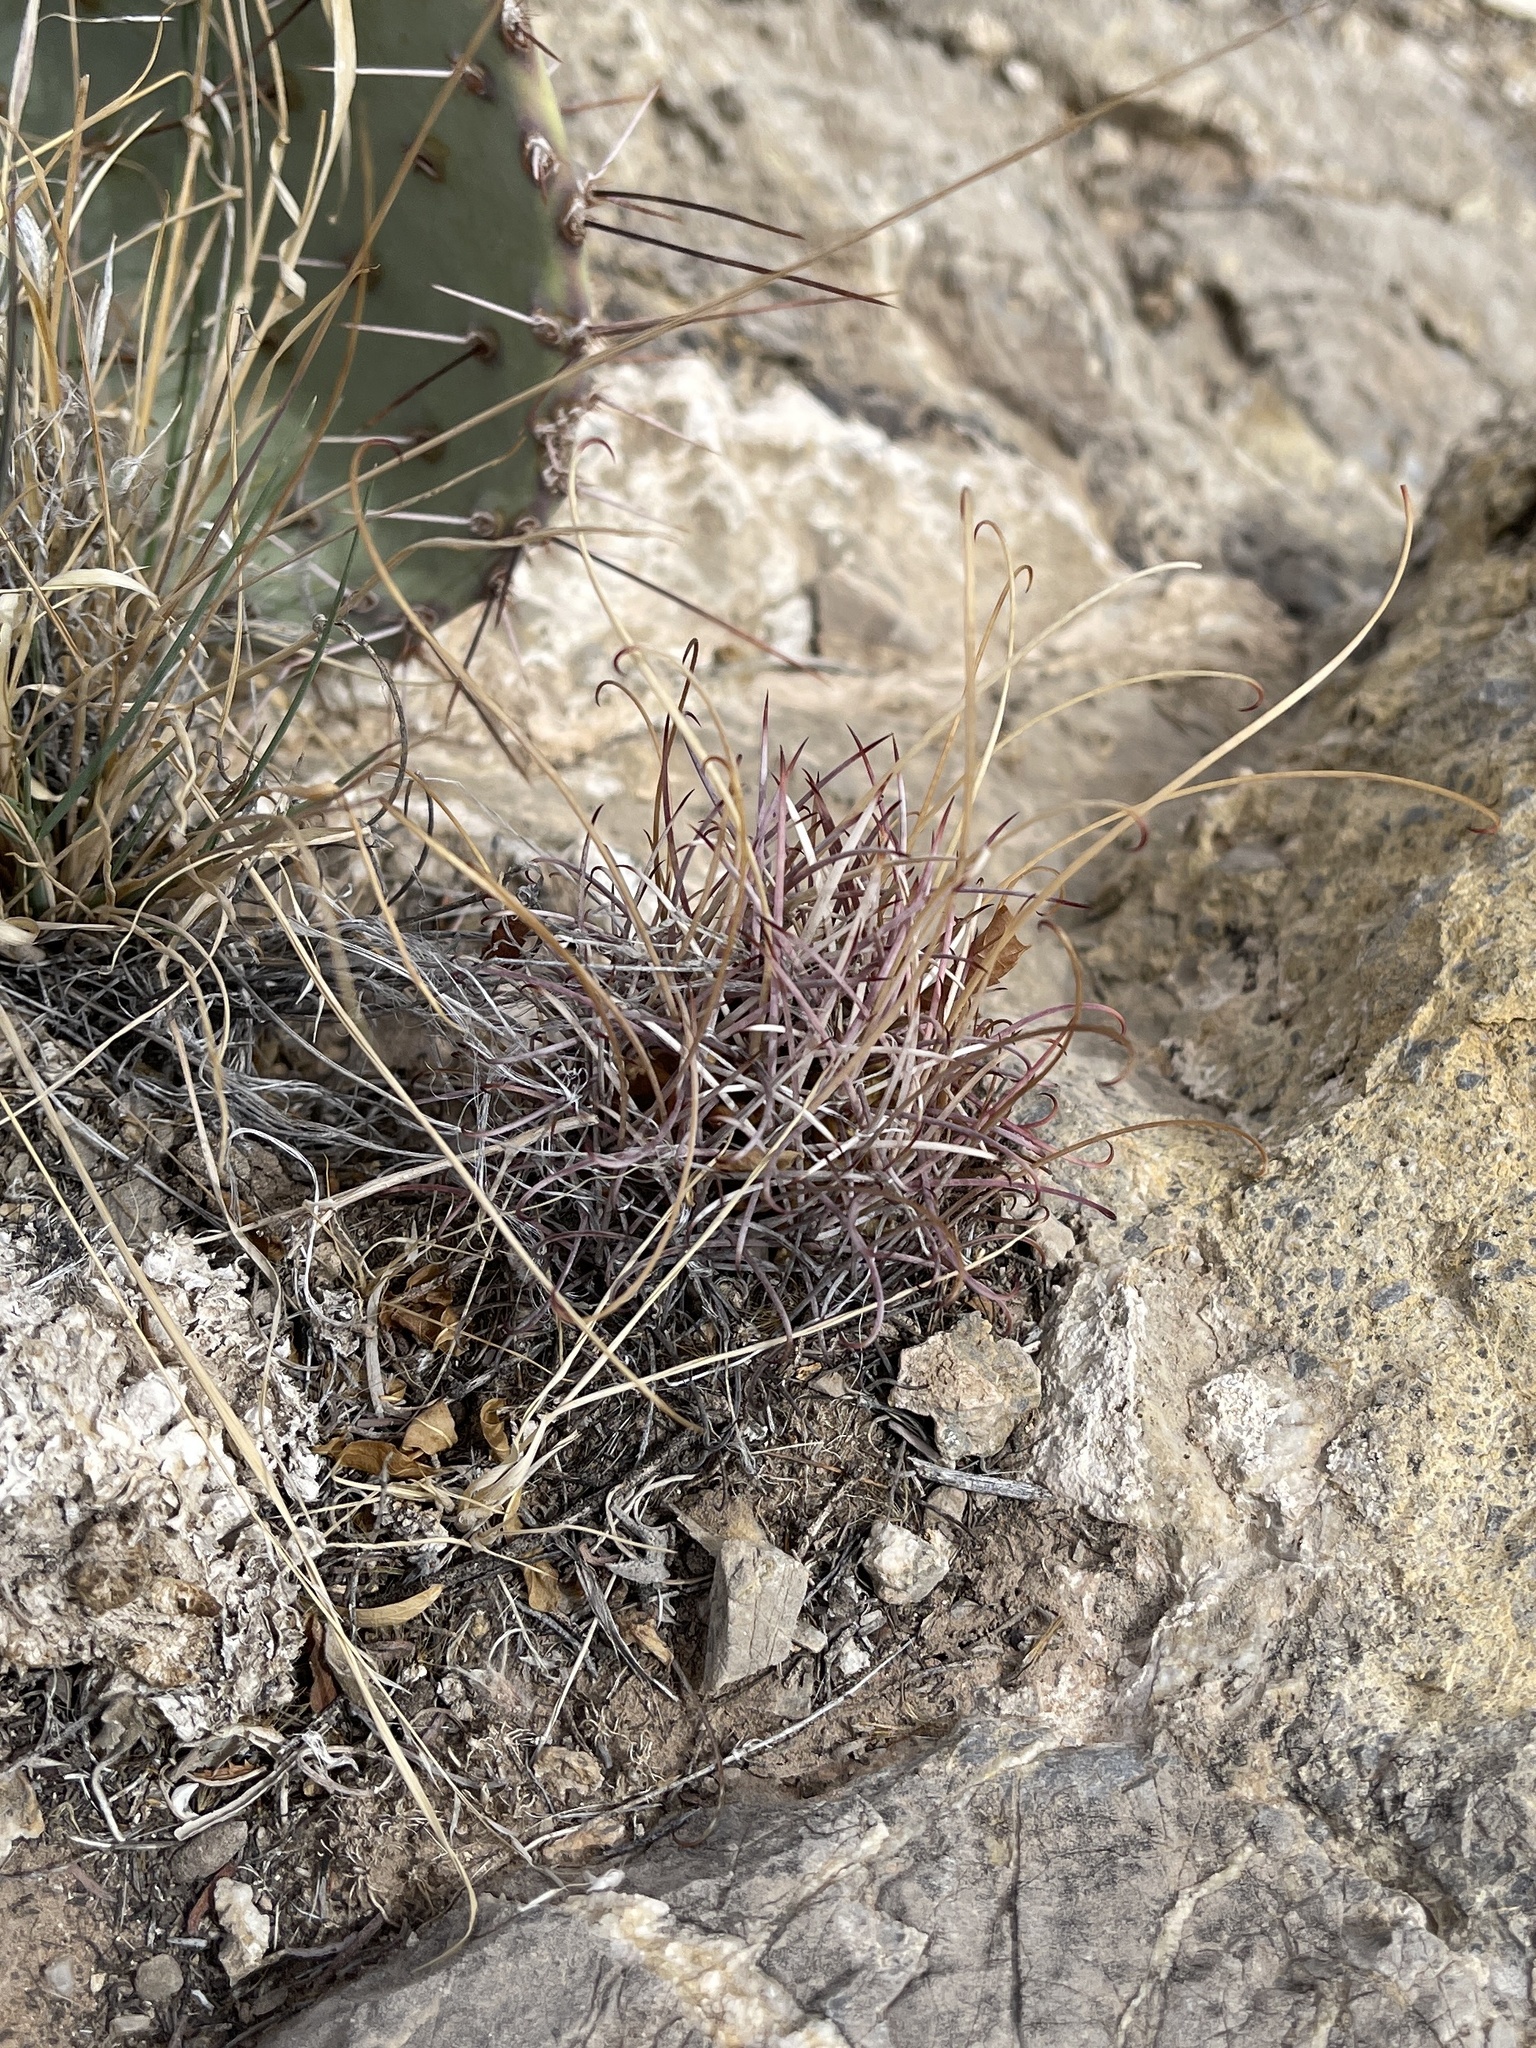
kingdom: Plantae
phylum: Tracheophyta
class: Magnoliopsida
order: Caryophyllales
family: Cactaceae
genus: Ferocactus
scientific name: Ferocactus uncinatus
